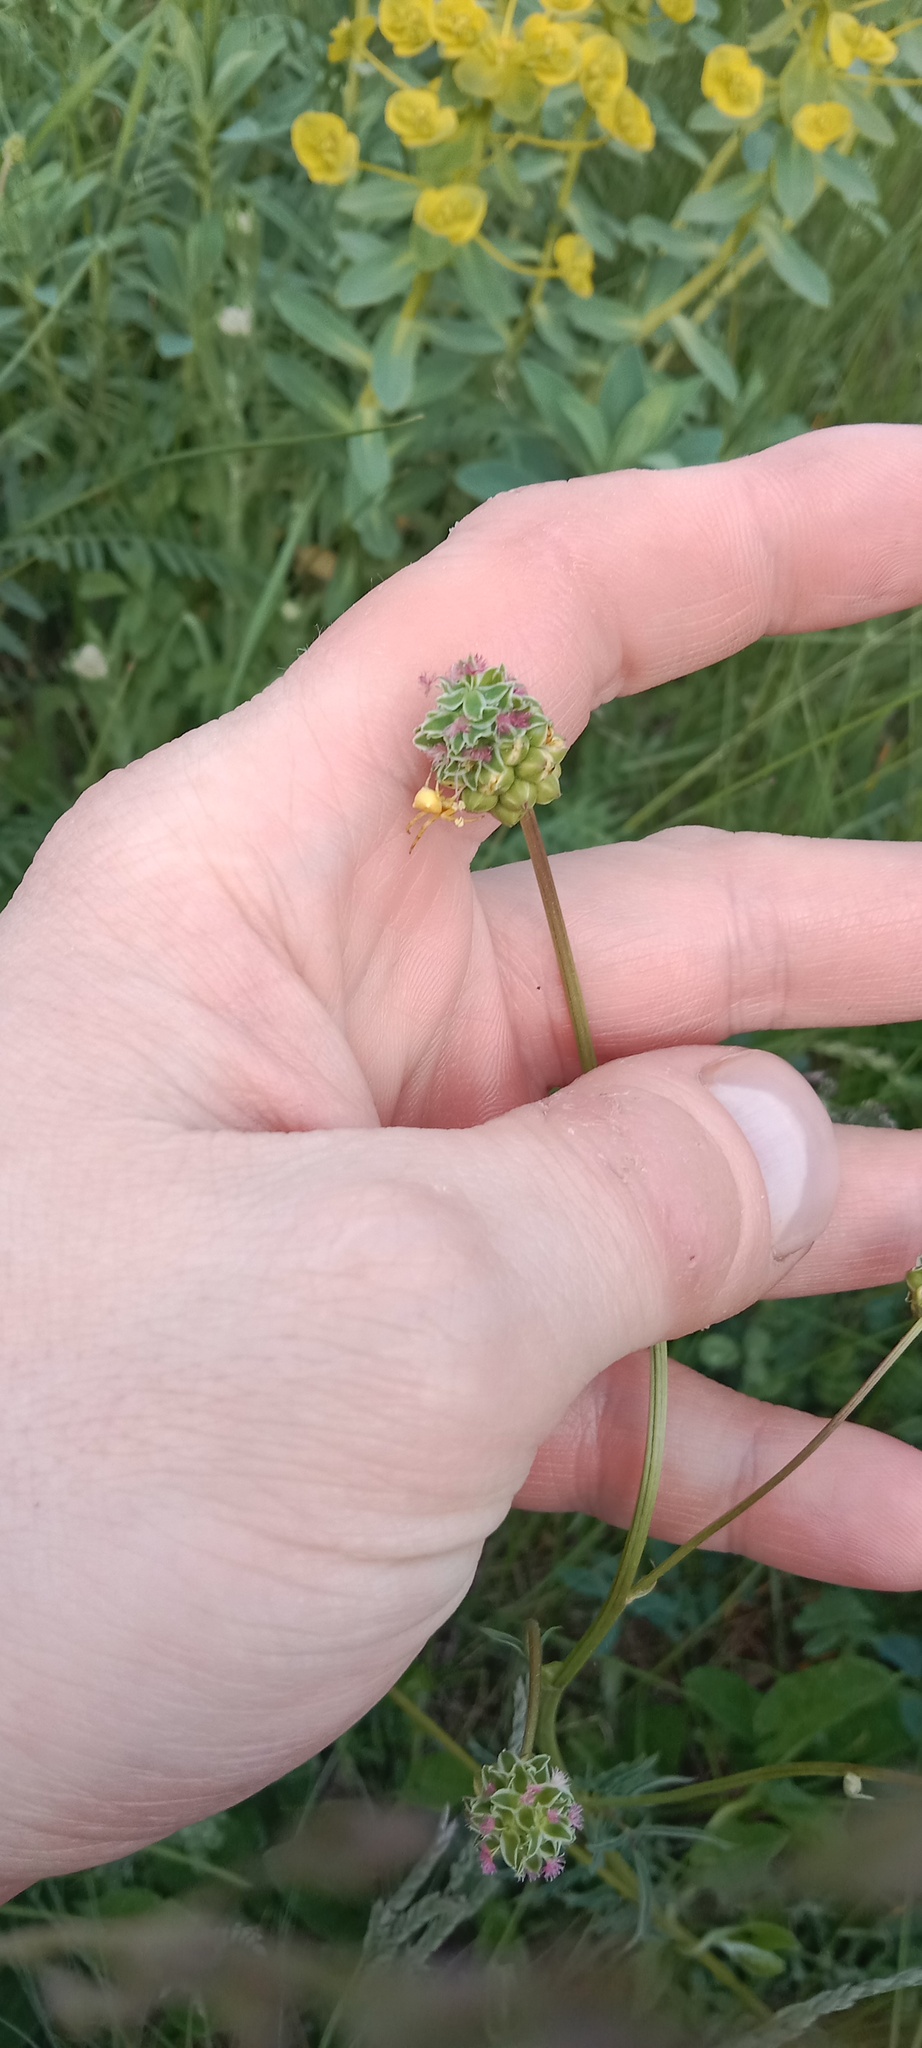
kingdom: Plantae
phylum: Tracheophyta
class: Magnoliopsida
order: Rosales
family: Rosaceae
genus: Poterium
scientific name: Poterium sanguisorba
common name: Salad burnet
